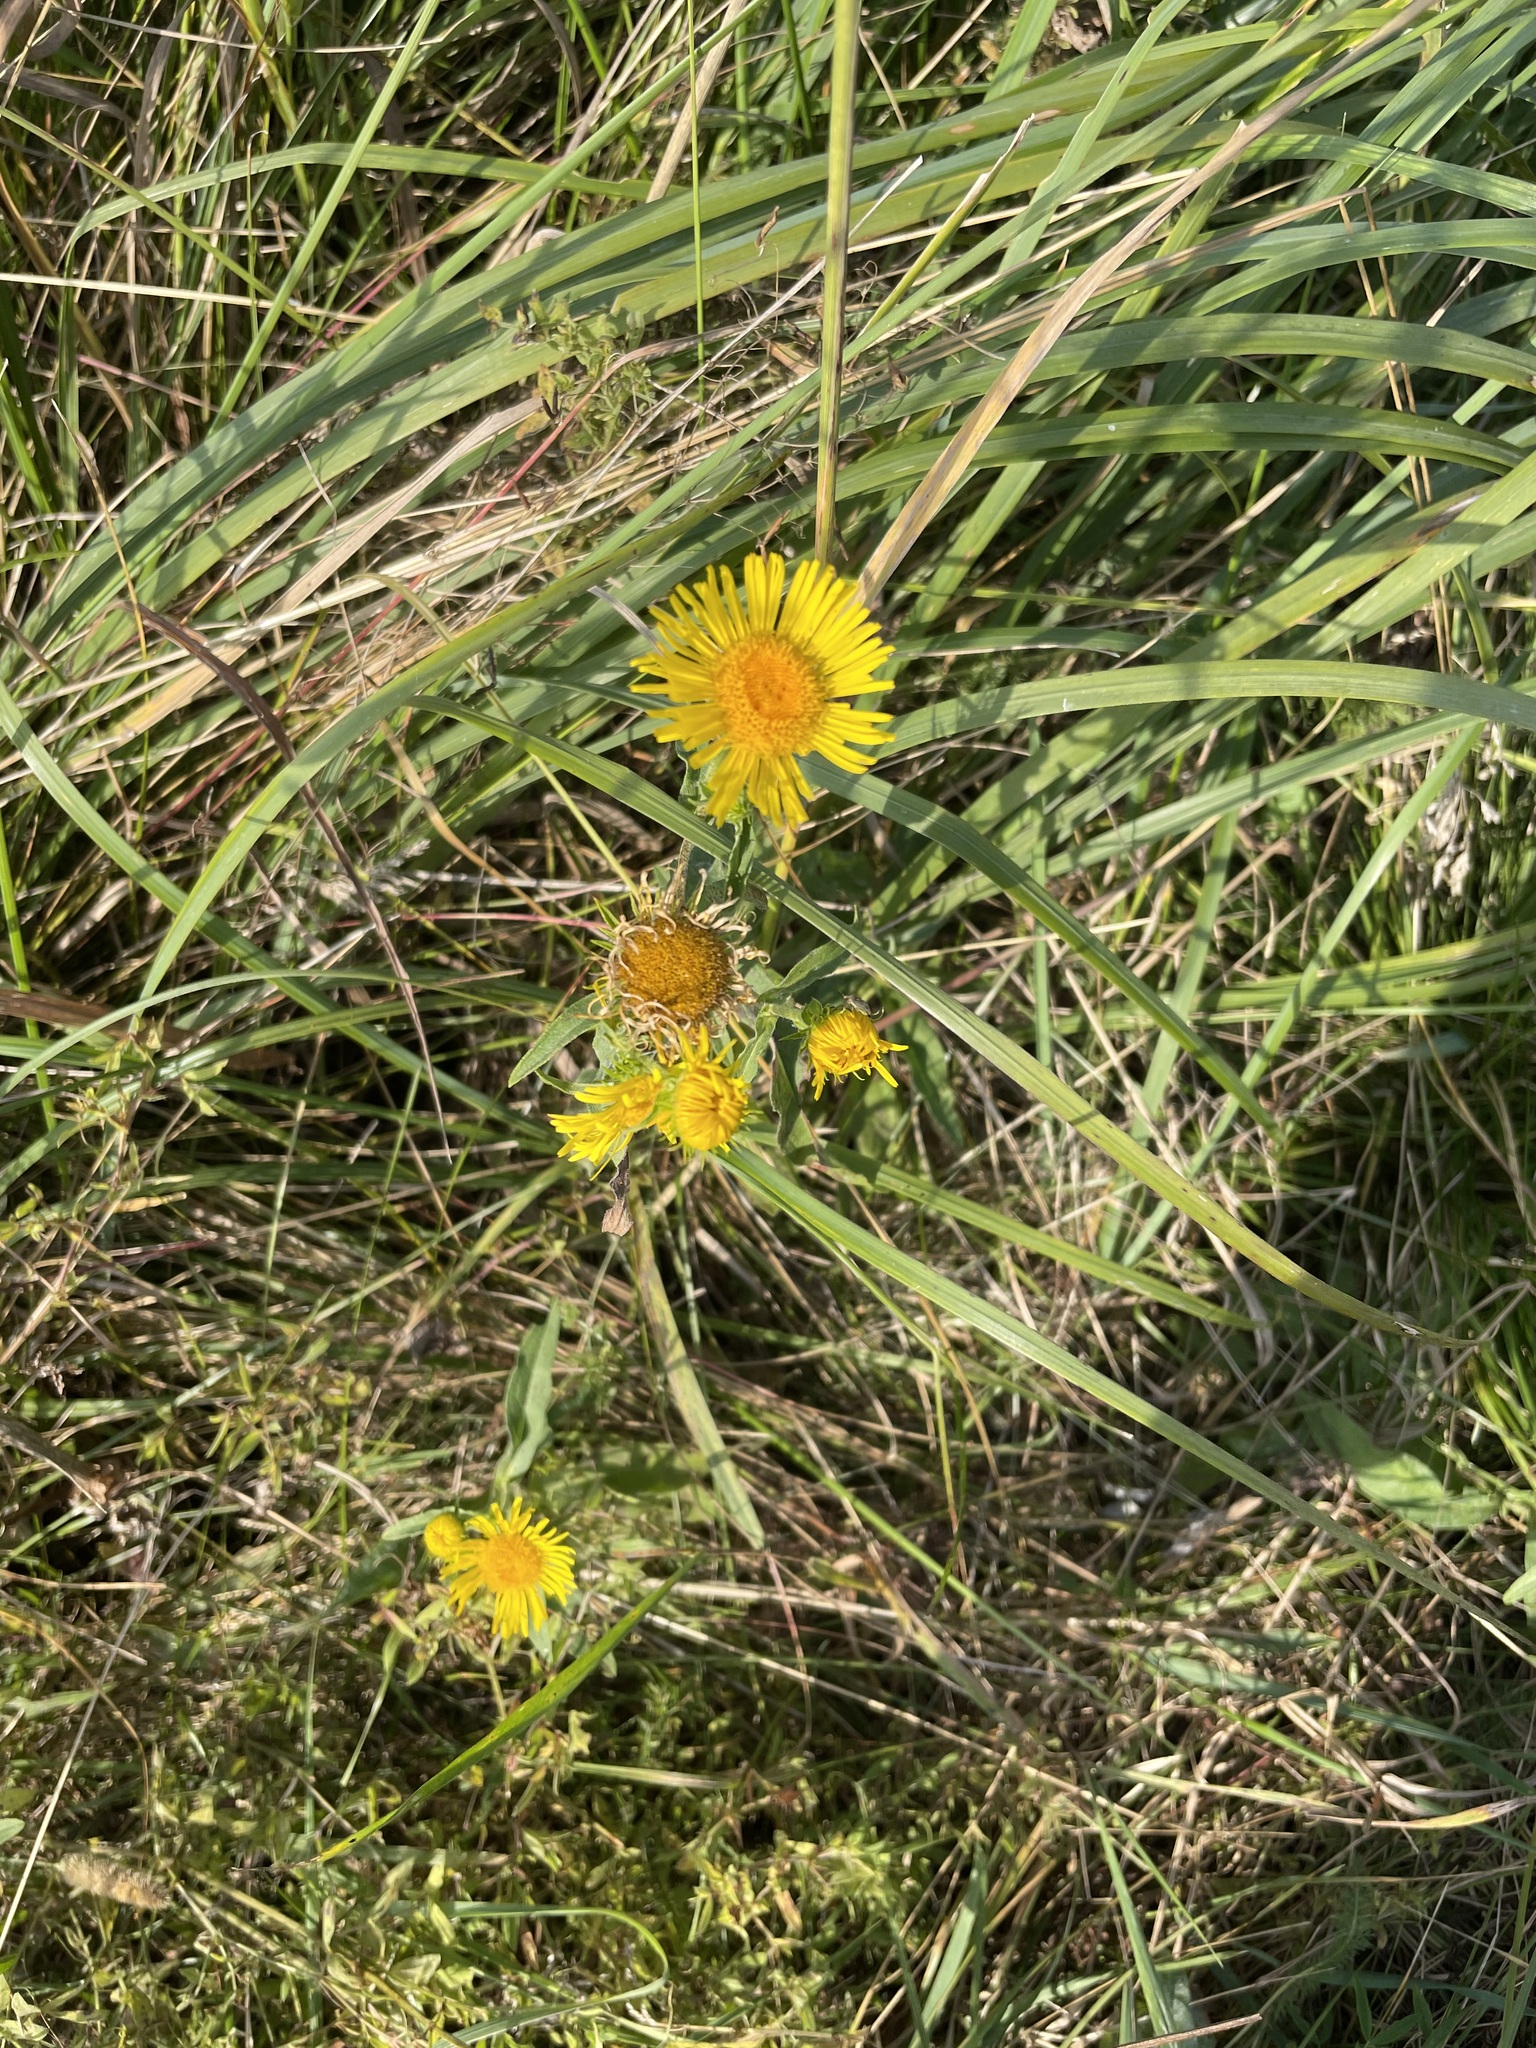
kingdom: Plantae
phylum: Tracheophyta
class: Magnoliopsida
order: Asterales
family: Asteraceae
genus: Pentanema
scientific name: Pentanema britannicum
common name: British elecampane
